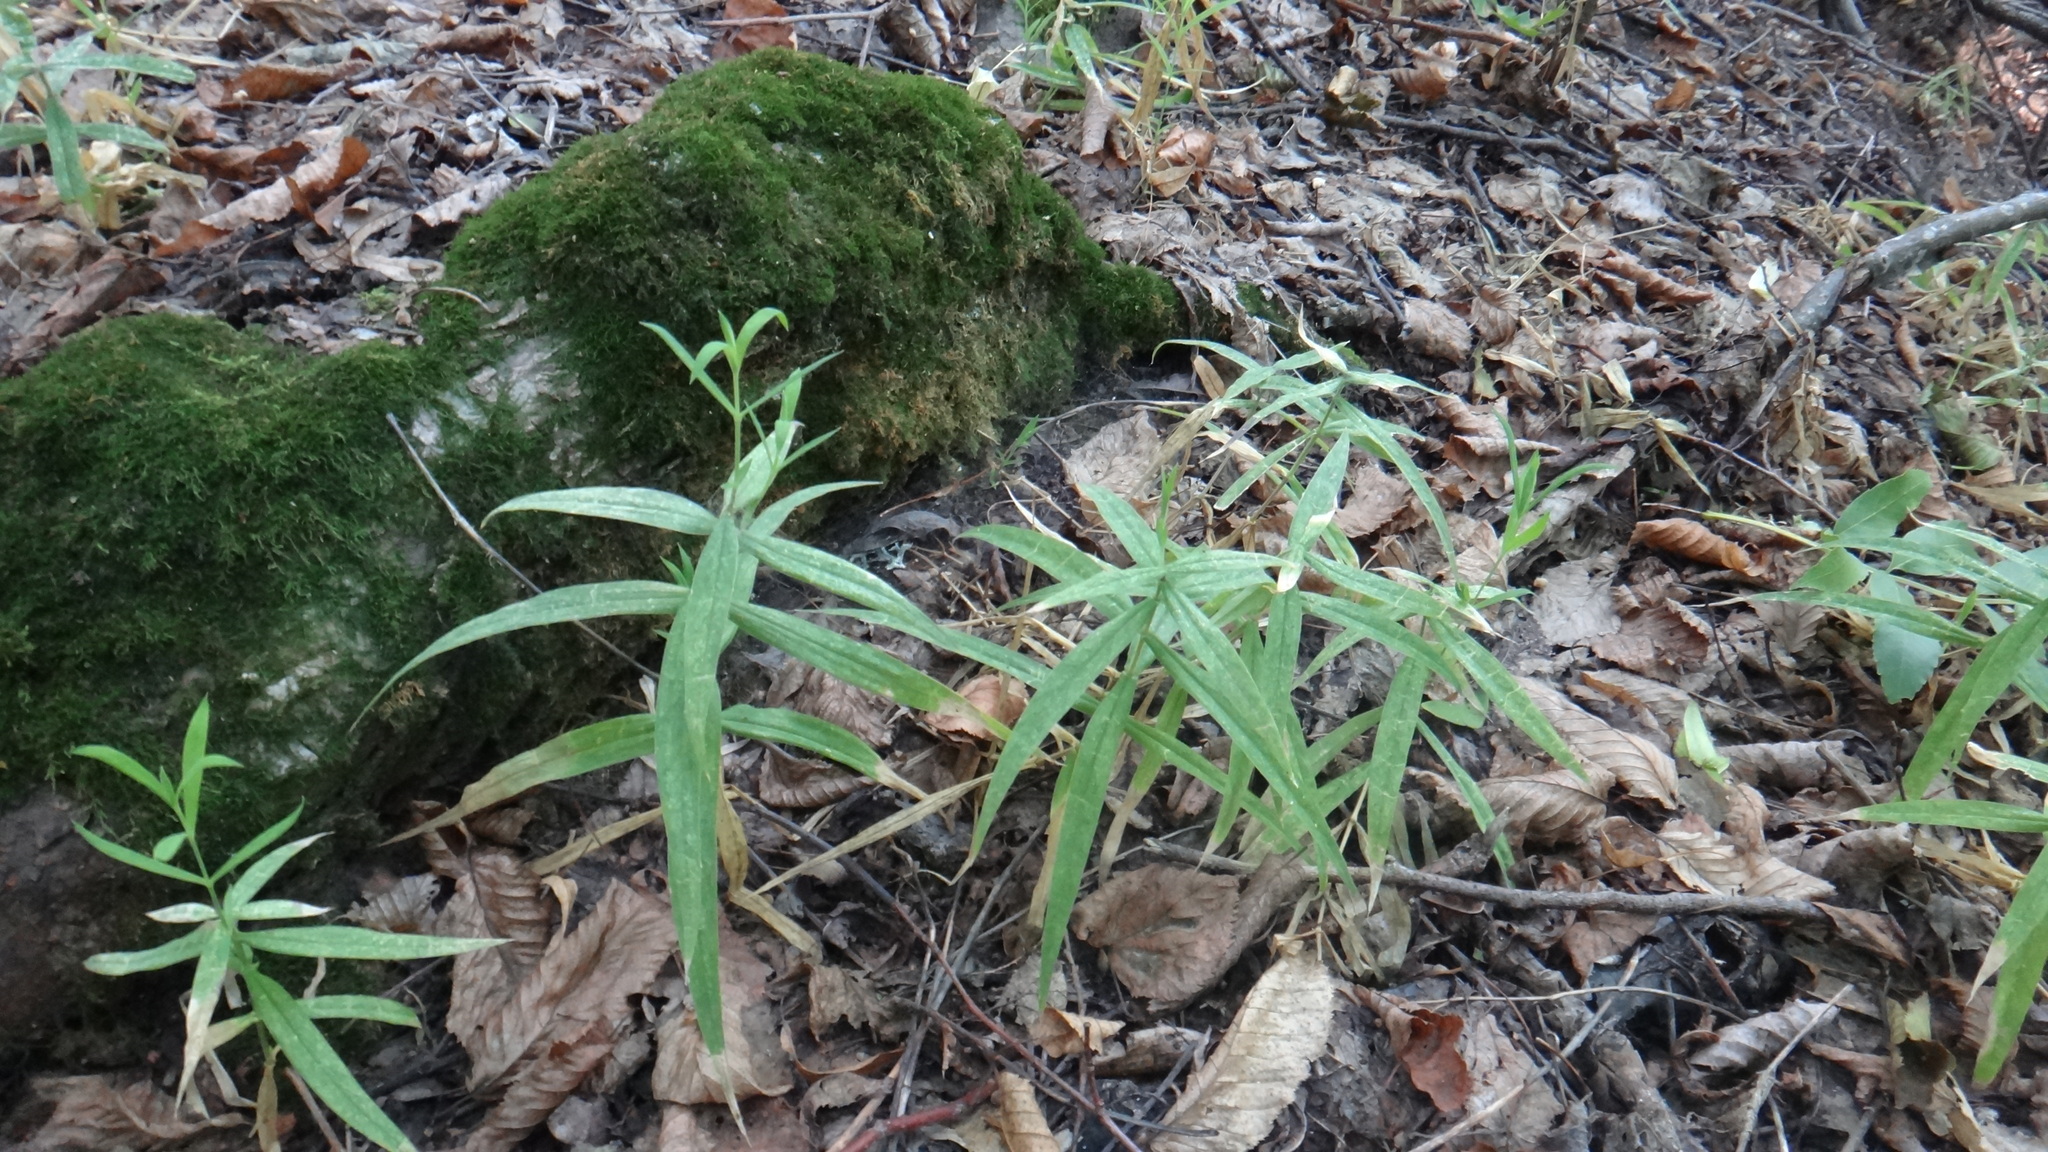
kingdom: Plantae
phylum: Tracheophyta
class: Magnoliopsida
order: Caryophyllales
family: Caryophyllaceae
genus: Rabelera
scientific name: Rabelera holostea
